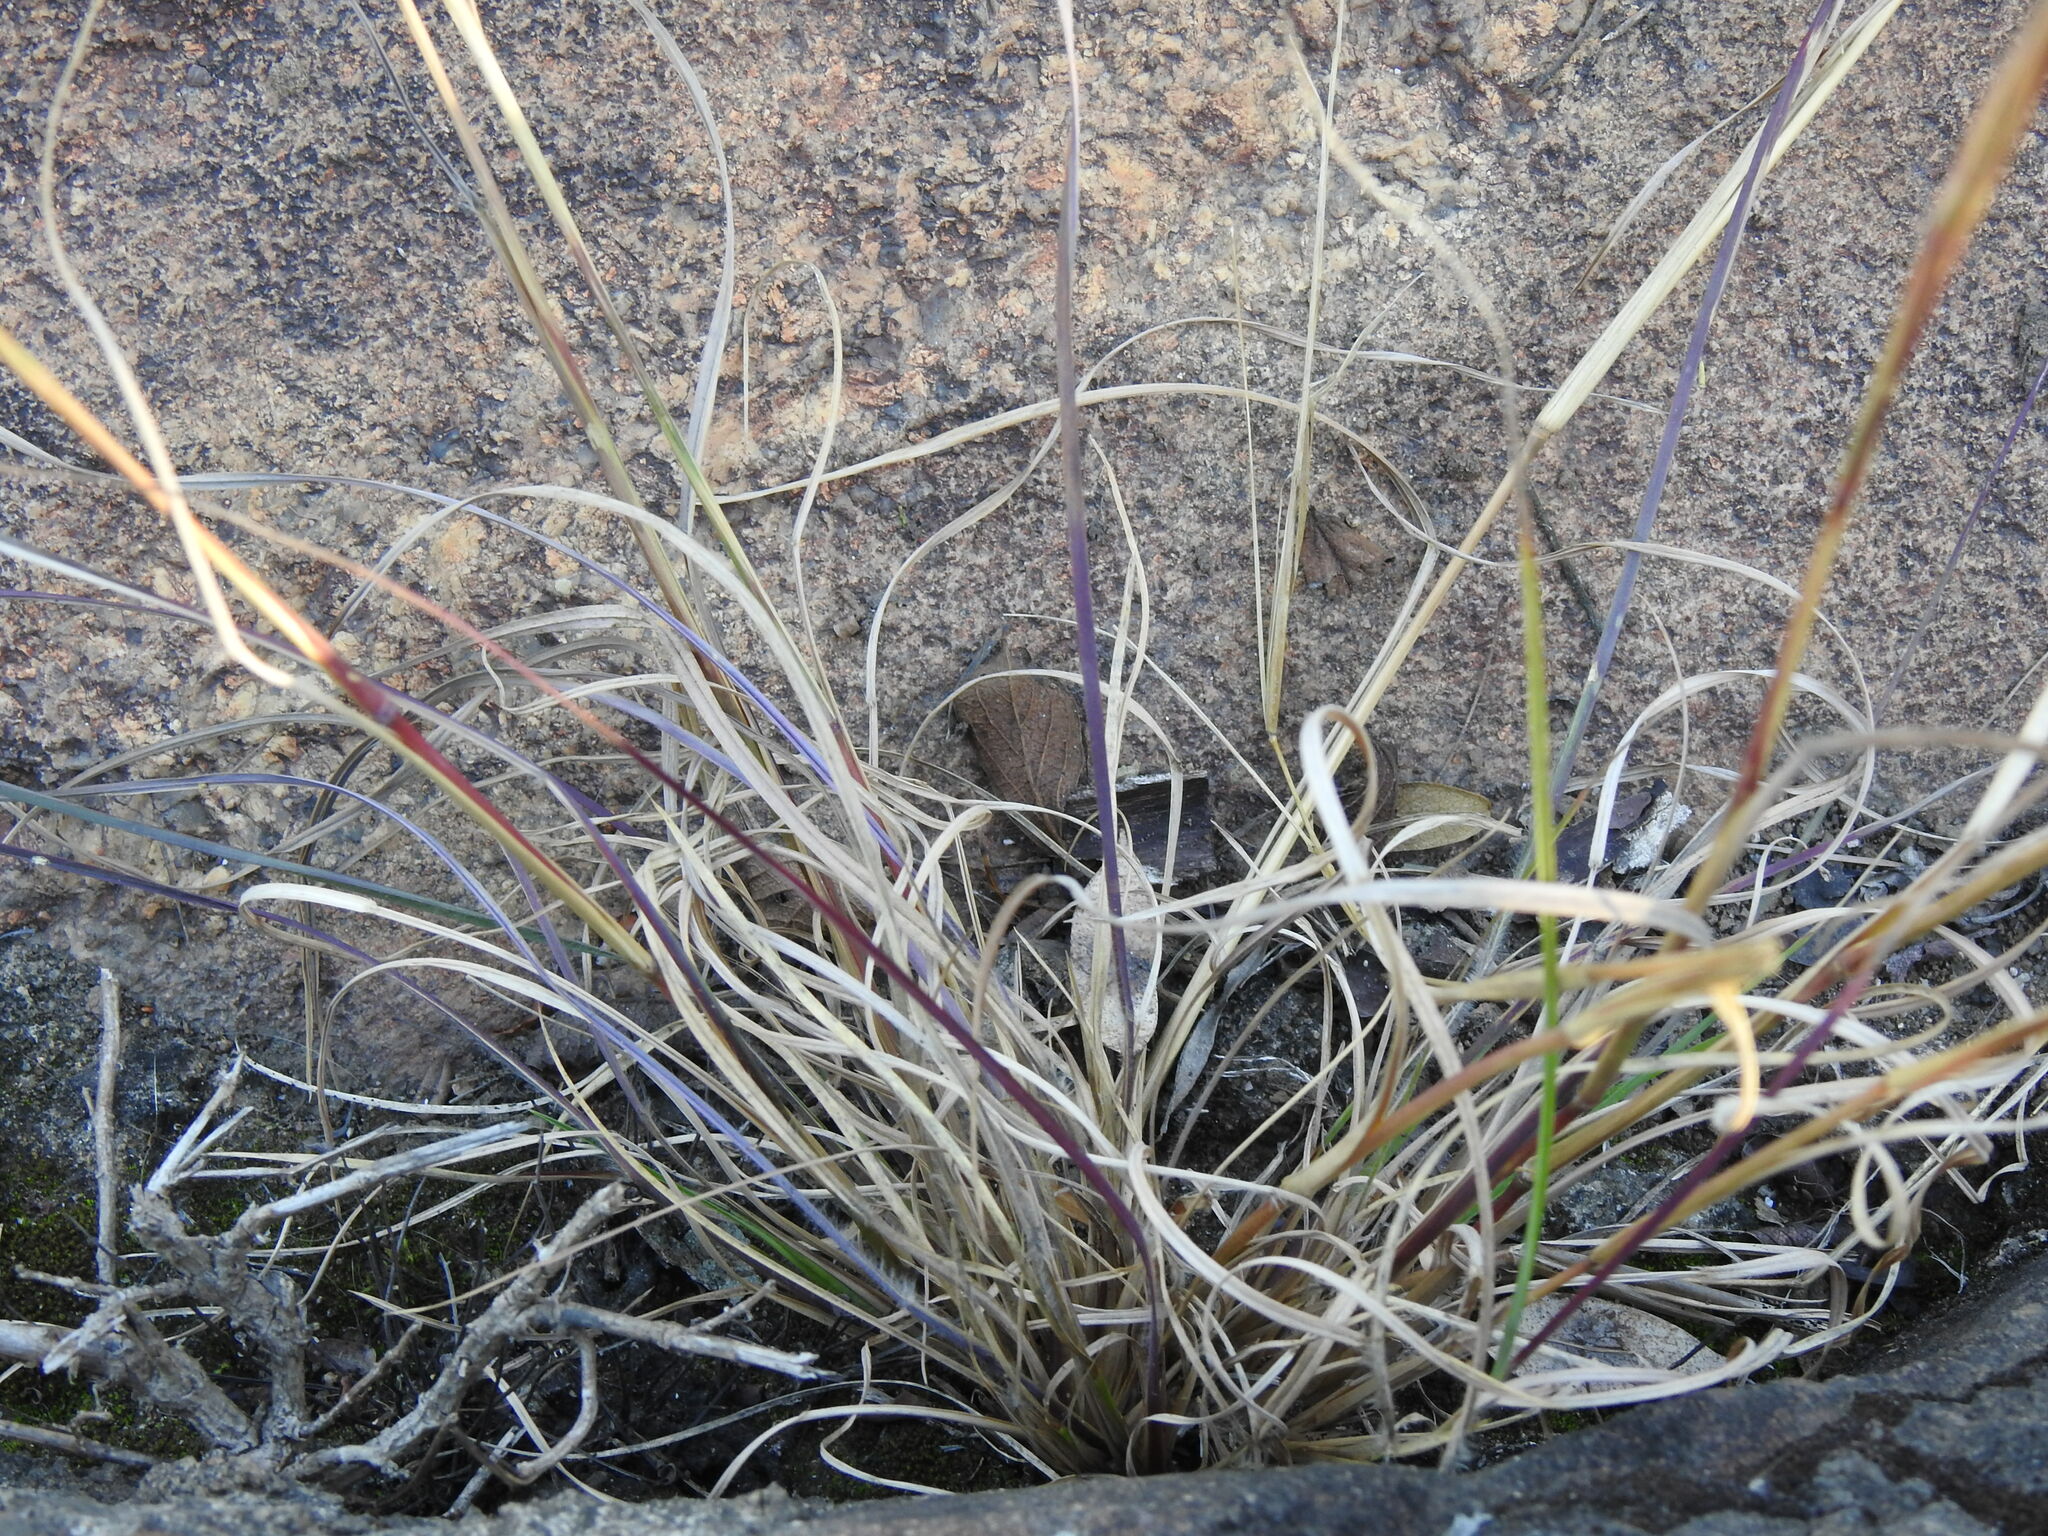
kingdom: Plantae
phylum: Tracheophyta
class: Liliopsida
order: Poales
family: Poaceae
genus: Andropogon
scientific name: Andropogon eucomus
